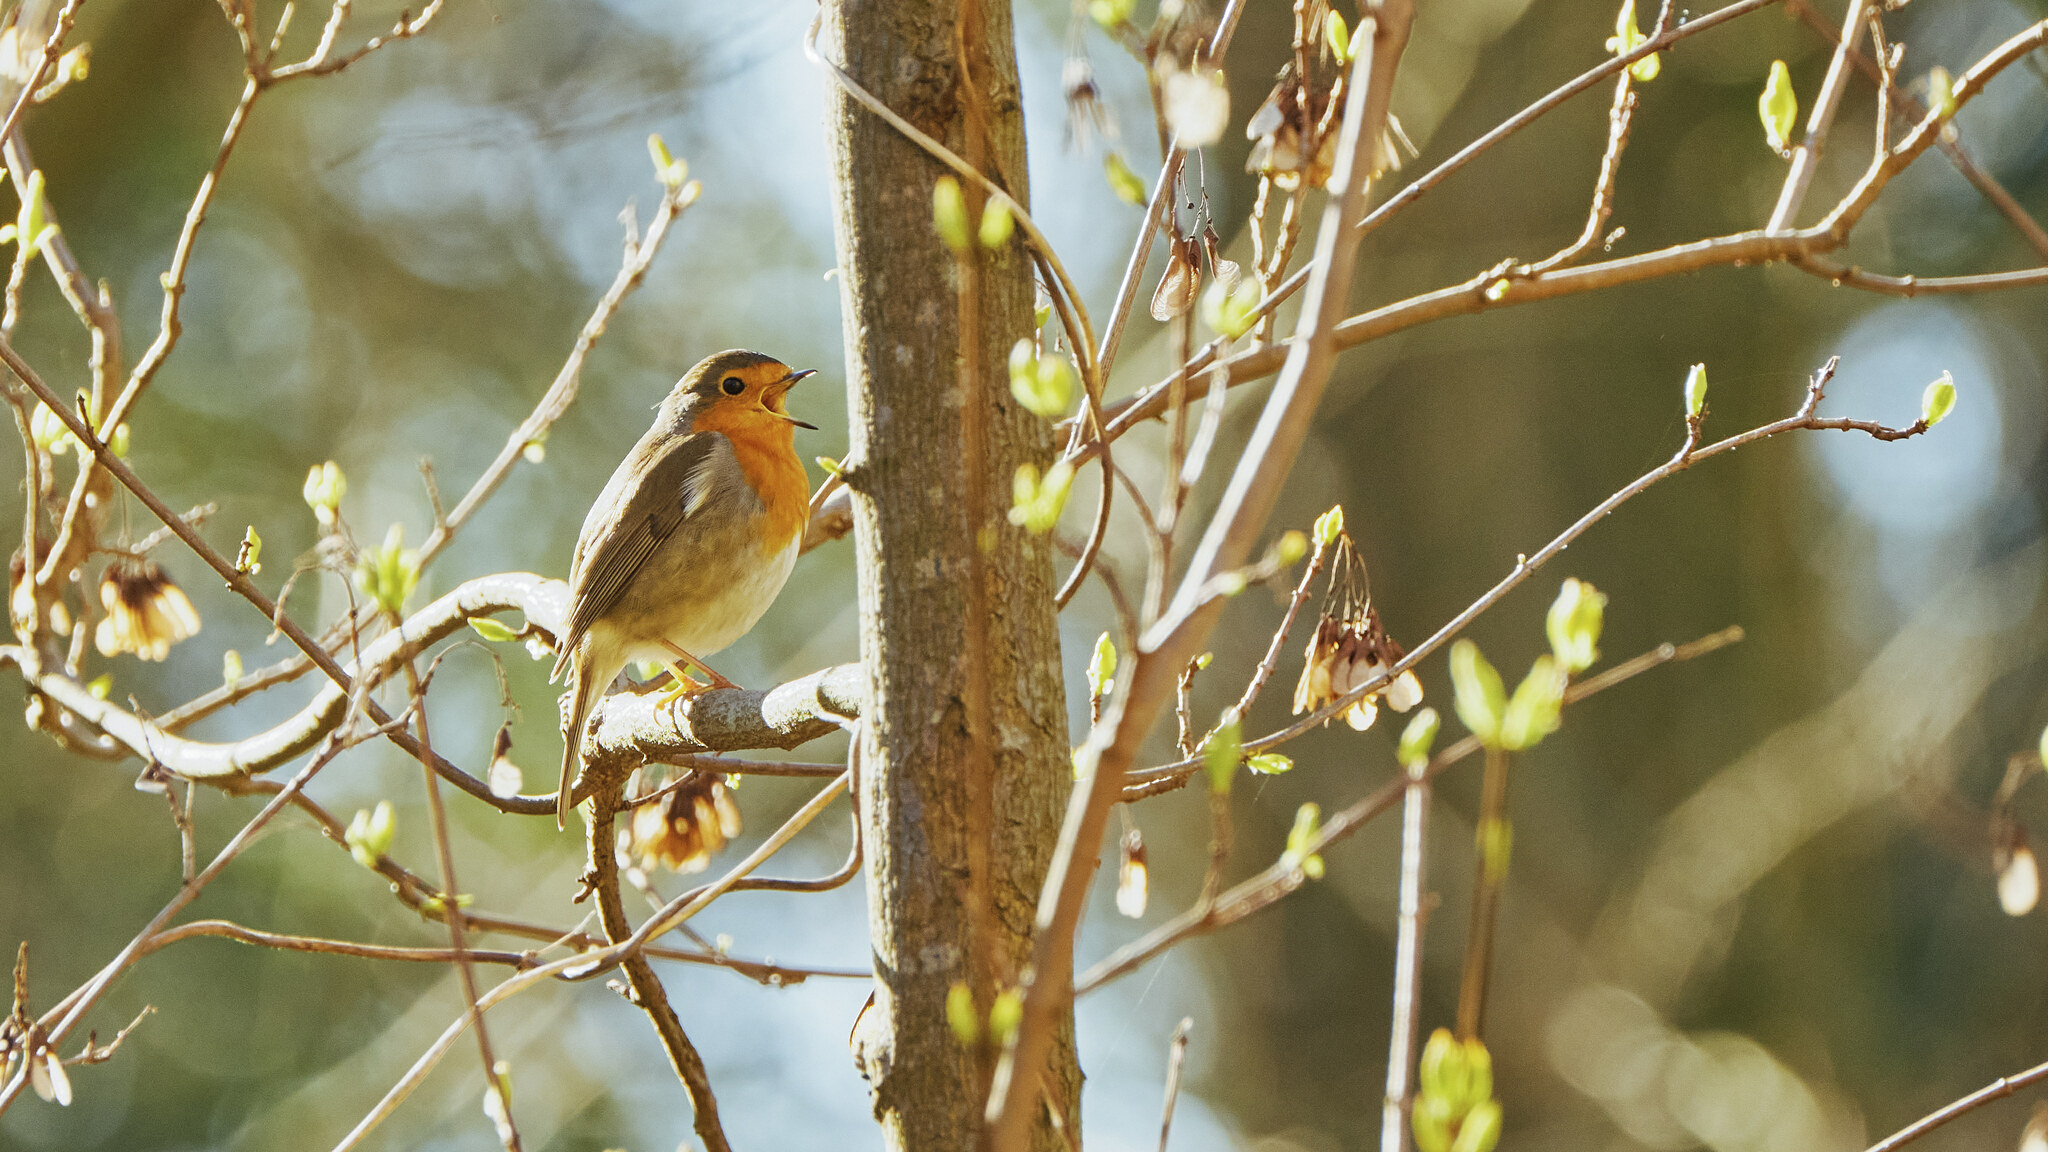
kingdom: Animalia
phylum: Chordata
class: Aves
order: Passeriformes
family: Muscicapidae
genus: Erithacus
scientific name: Erithacus rubecula
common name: European robin
